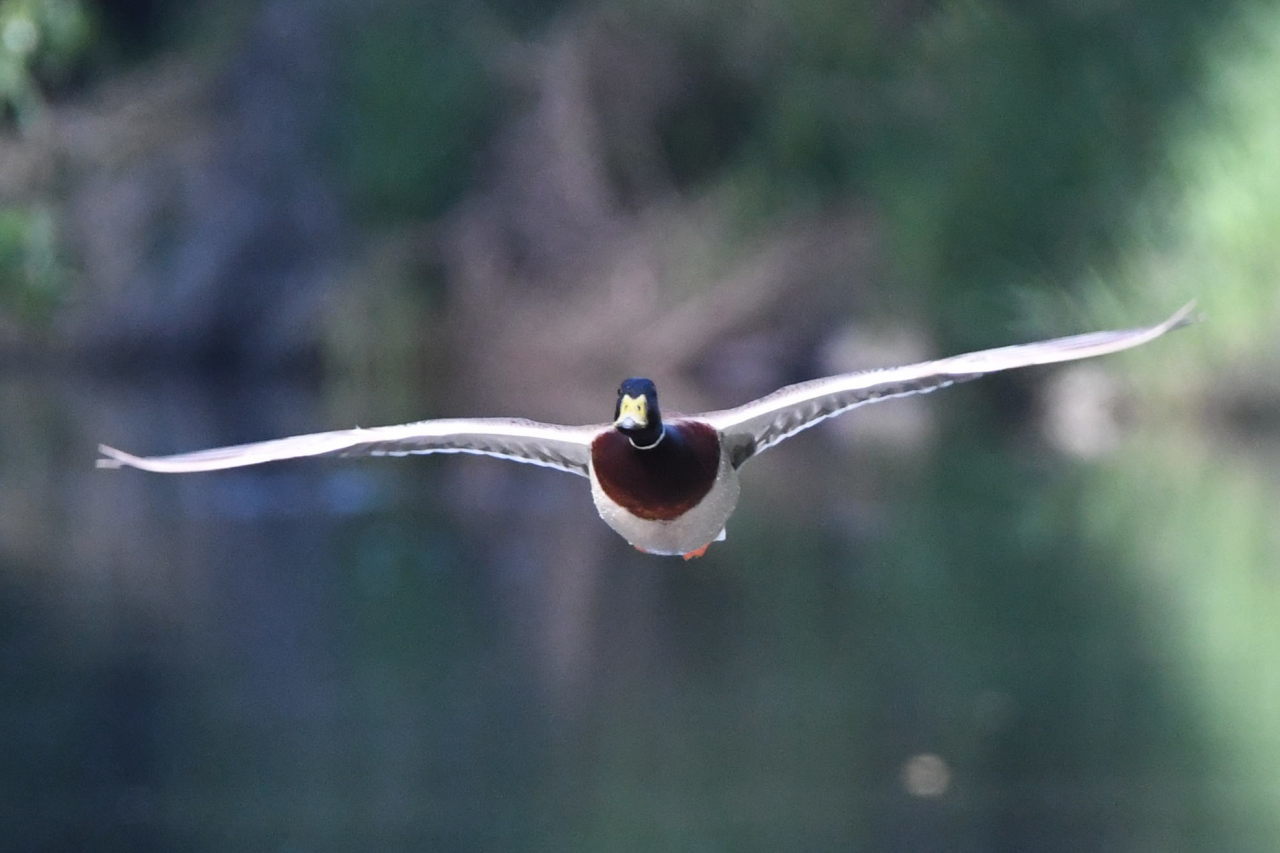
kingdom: Animalia
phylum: Chordata
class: Aves
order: Anseriformes
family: Anatidae
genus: Anas
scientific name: Anas platyrhynchos
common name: Mallard
